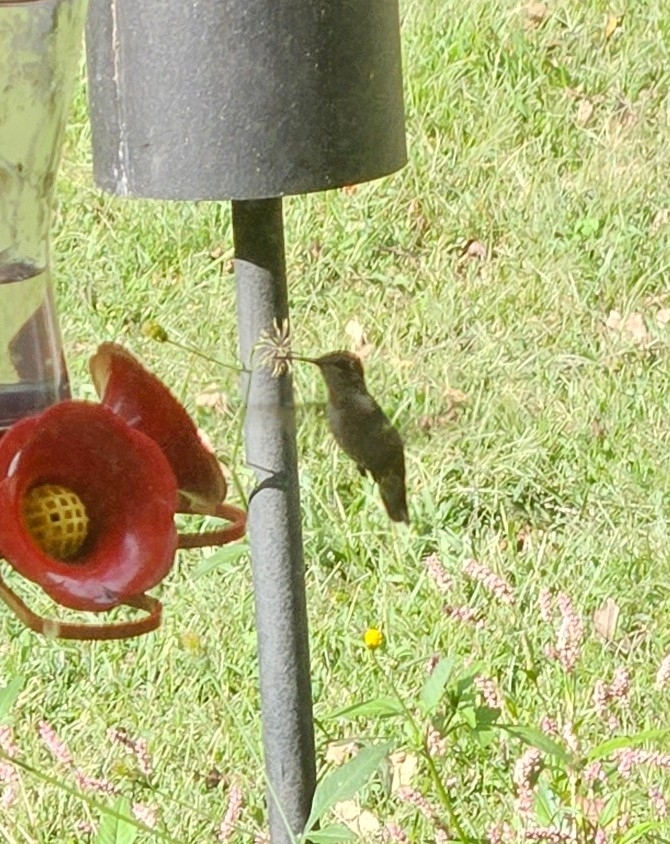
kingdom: Animalia
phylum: Chordata
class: Aves
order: Apodiformes
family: Trochilidae
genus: Archilochus
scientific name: Archilochus colubris
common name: Ruby-throated hummingbird
